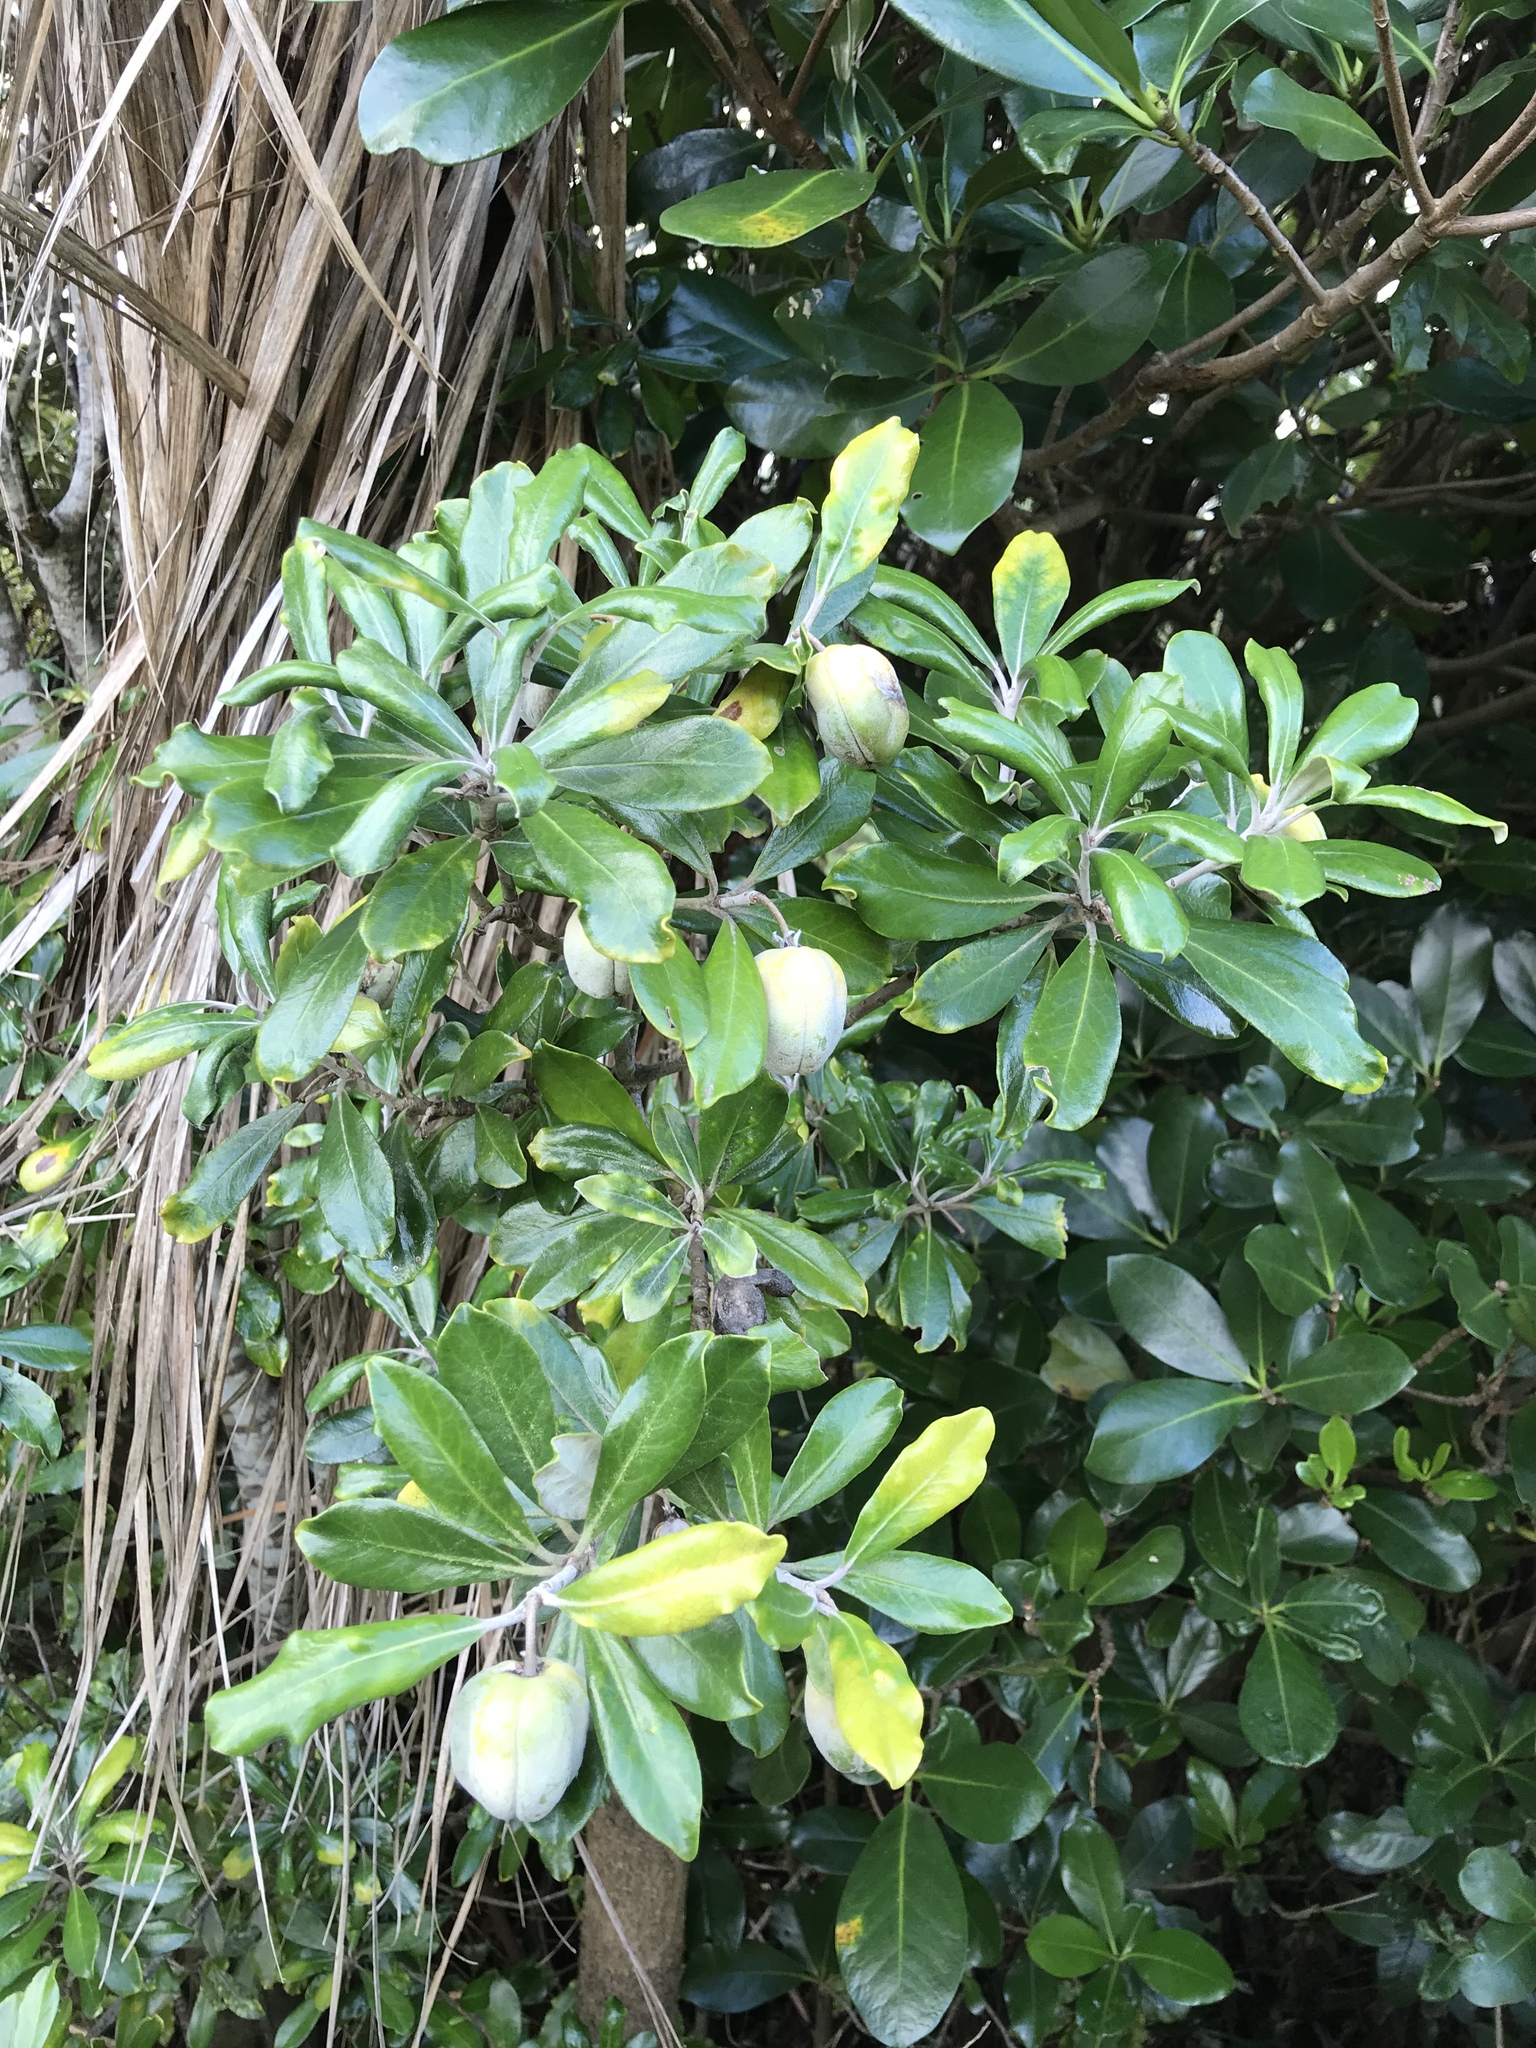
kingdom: Plantae
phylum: Tracheophyta
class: Magnoliopsida
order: Apiales
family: Pittosporaceae
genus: Pittosporum
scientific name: Pittosporum crassifolium
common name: Karo
